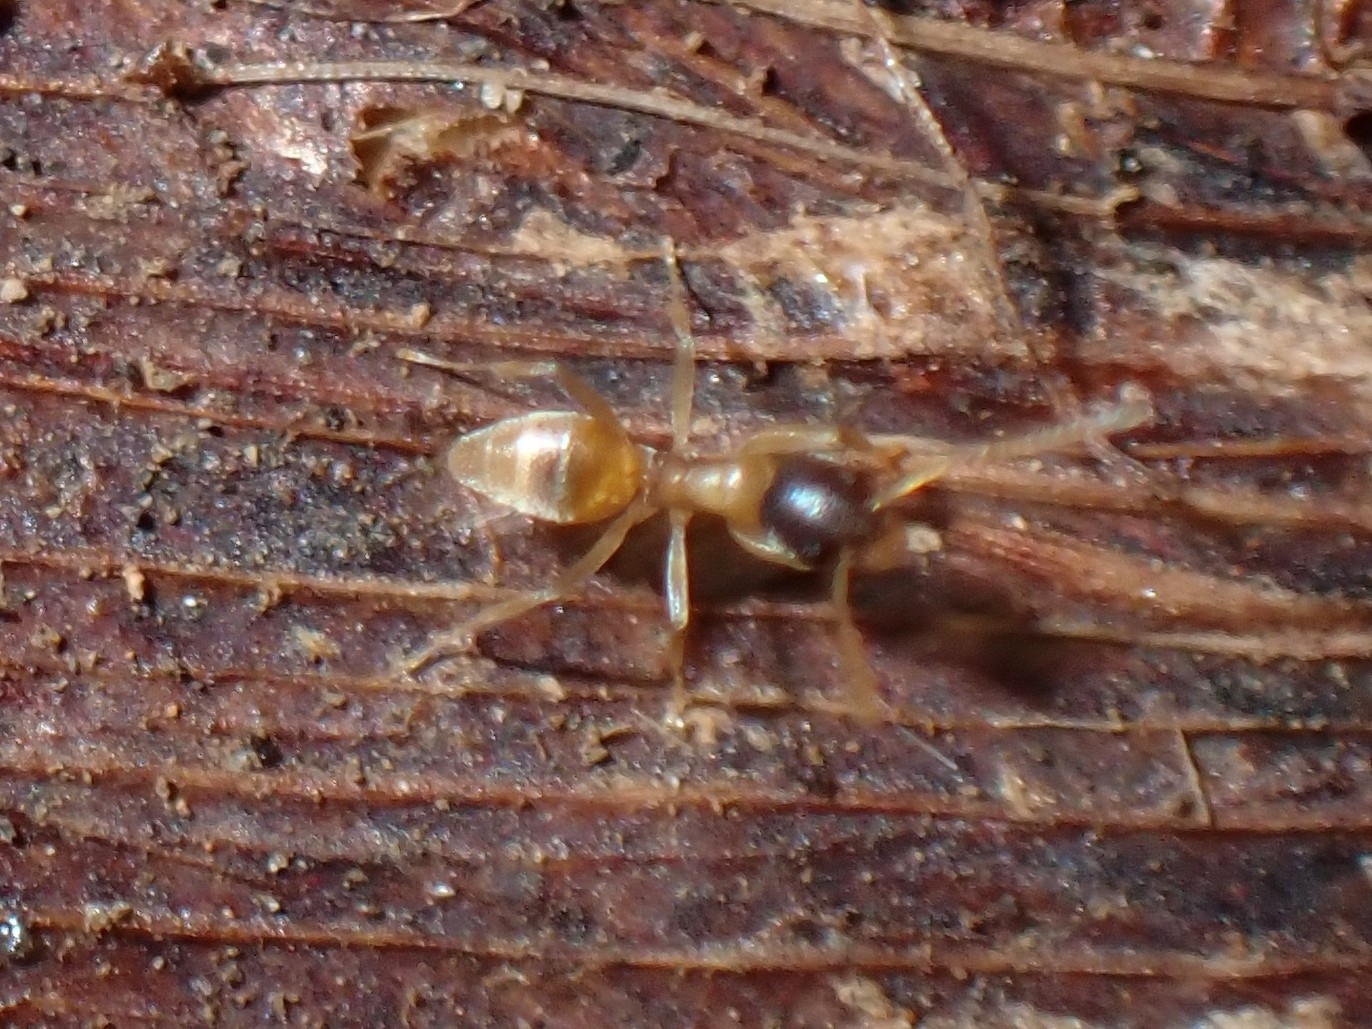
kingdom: Animalia
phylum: Arthropoda
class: Insecta
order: Hymenoptera
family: Formicidae
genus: Tapinoma
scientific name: Tapinoma melanocephalum
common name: Ghost ant
